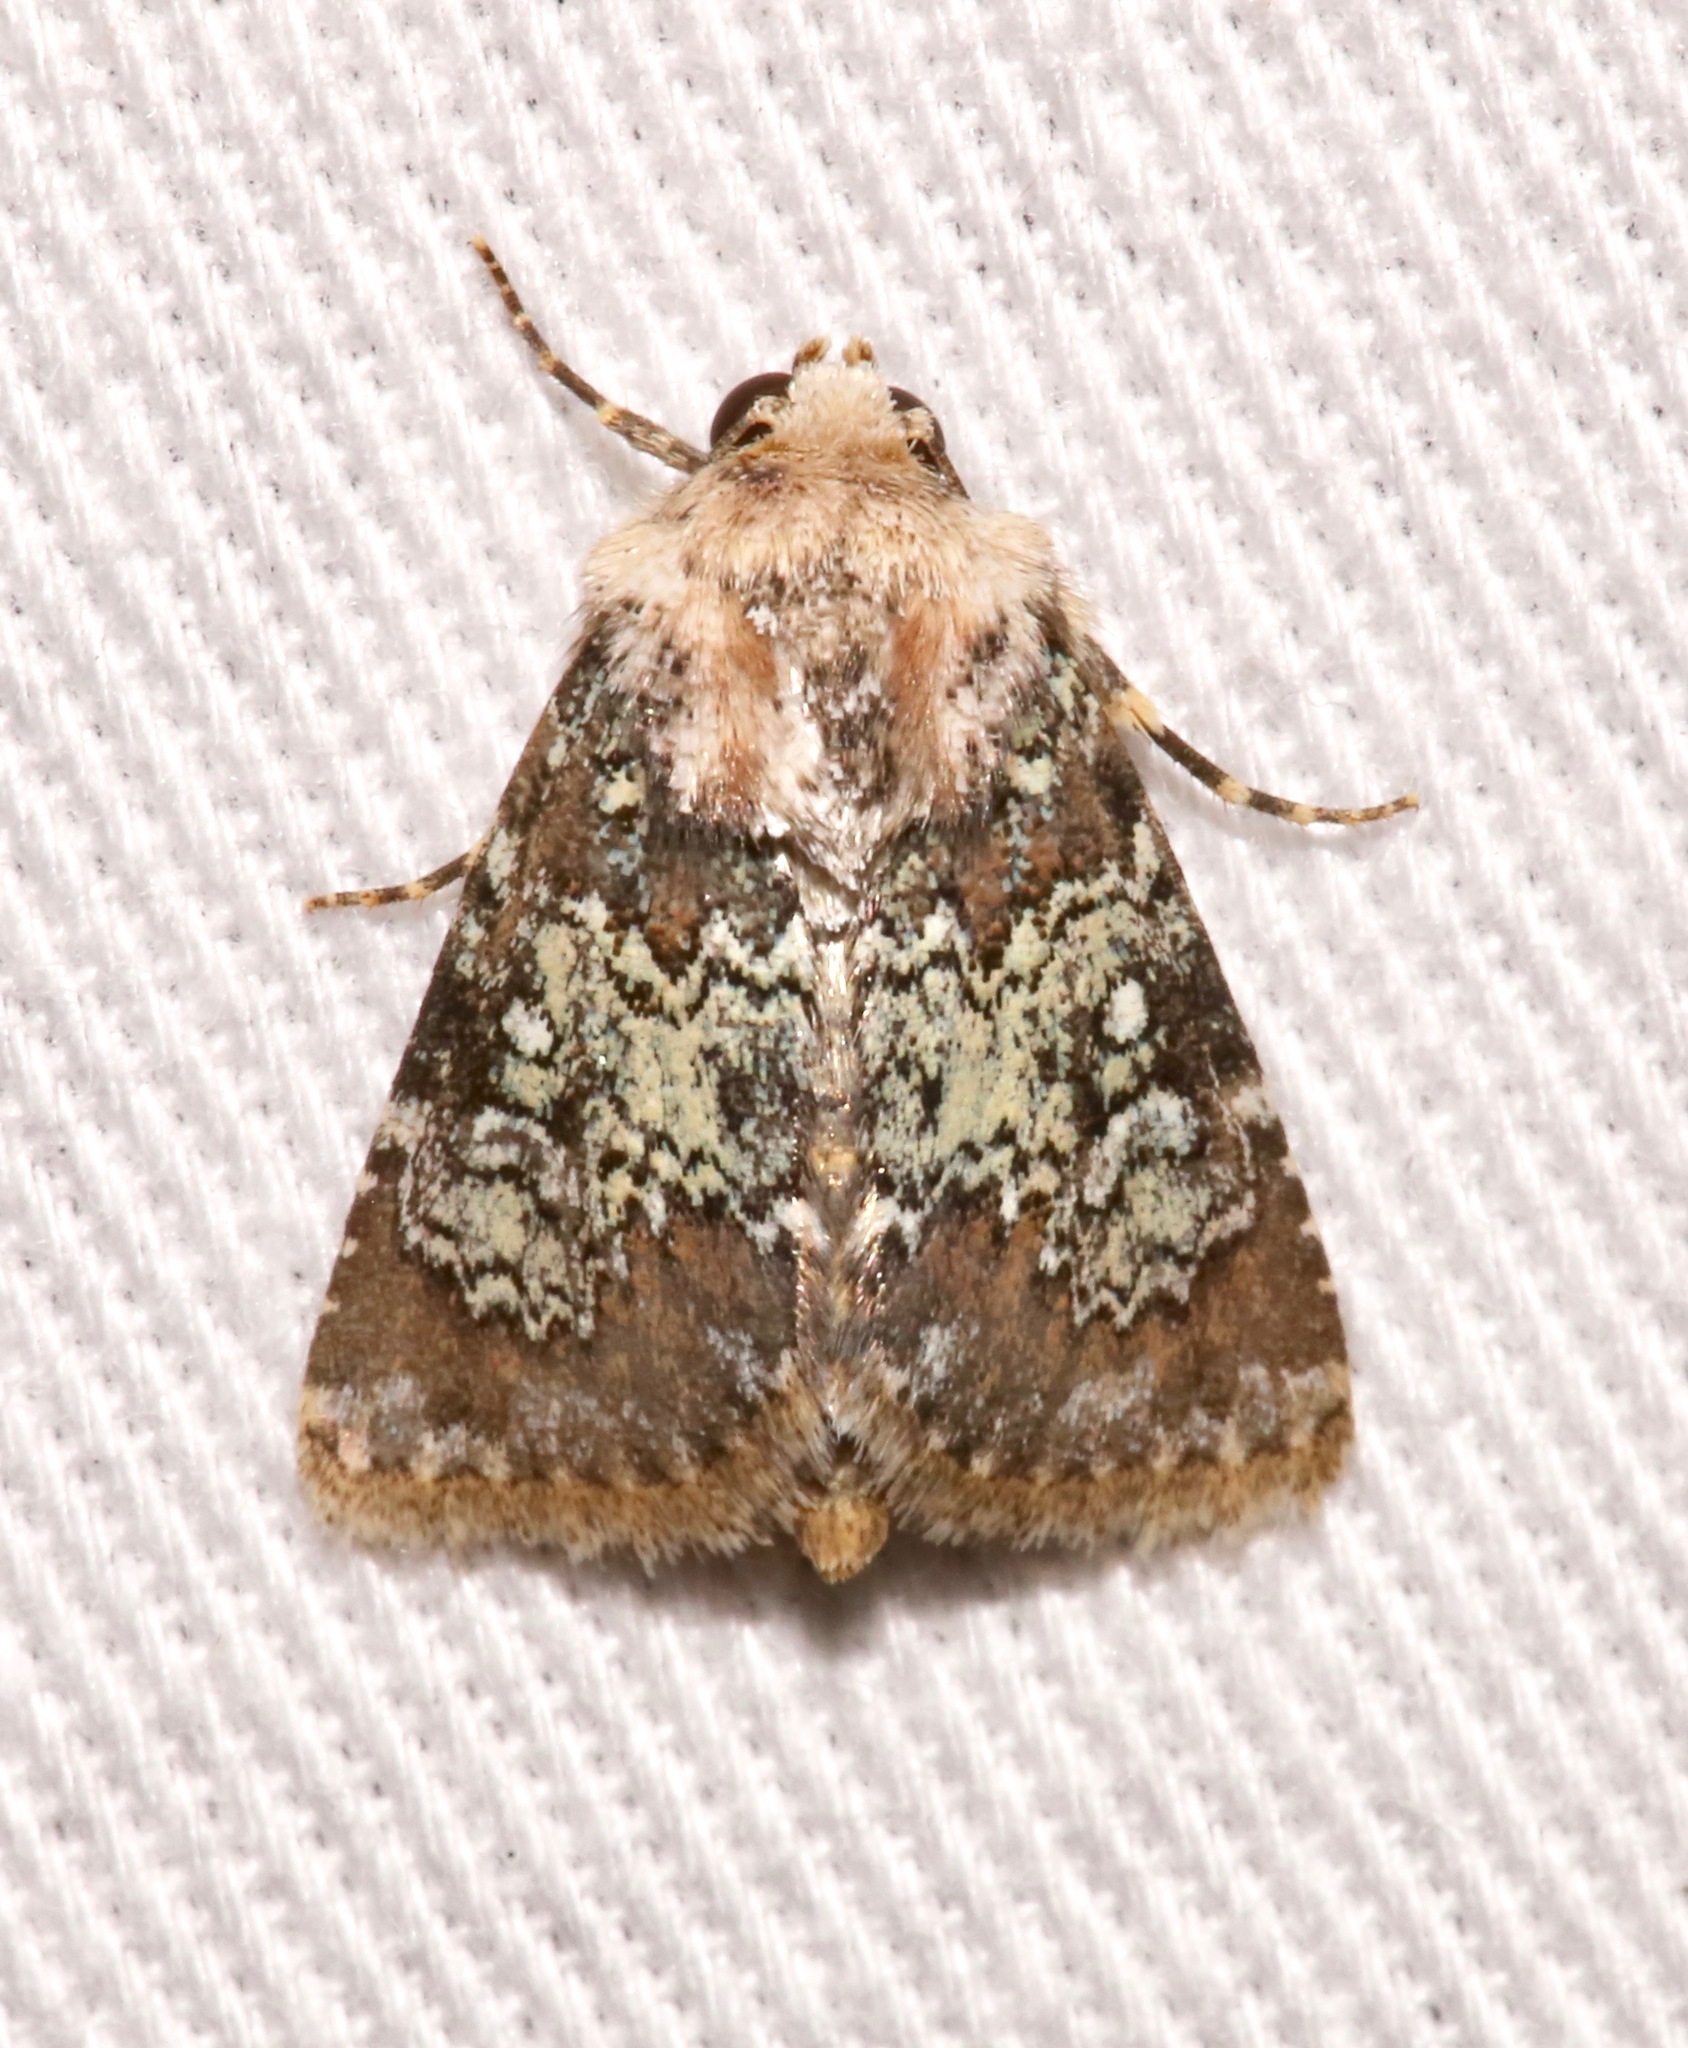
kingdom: Animalia
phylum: Arthropoda
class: Insecta
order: Lepidoptera
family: Noctuidae
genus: Hemibryomima
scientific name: Hemibryomima chryselectra
